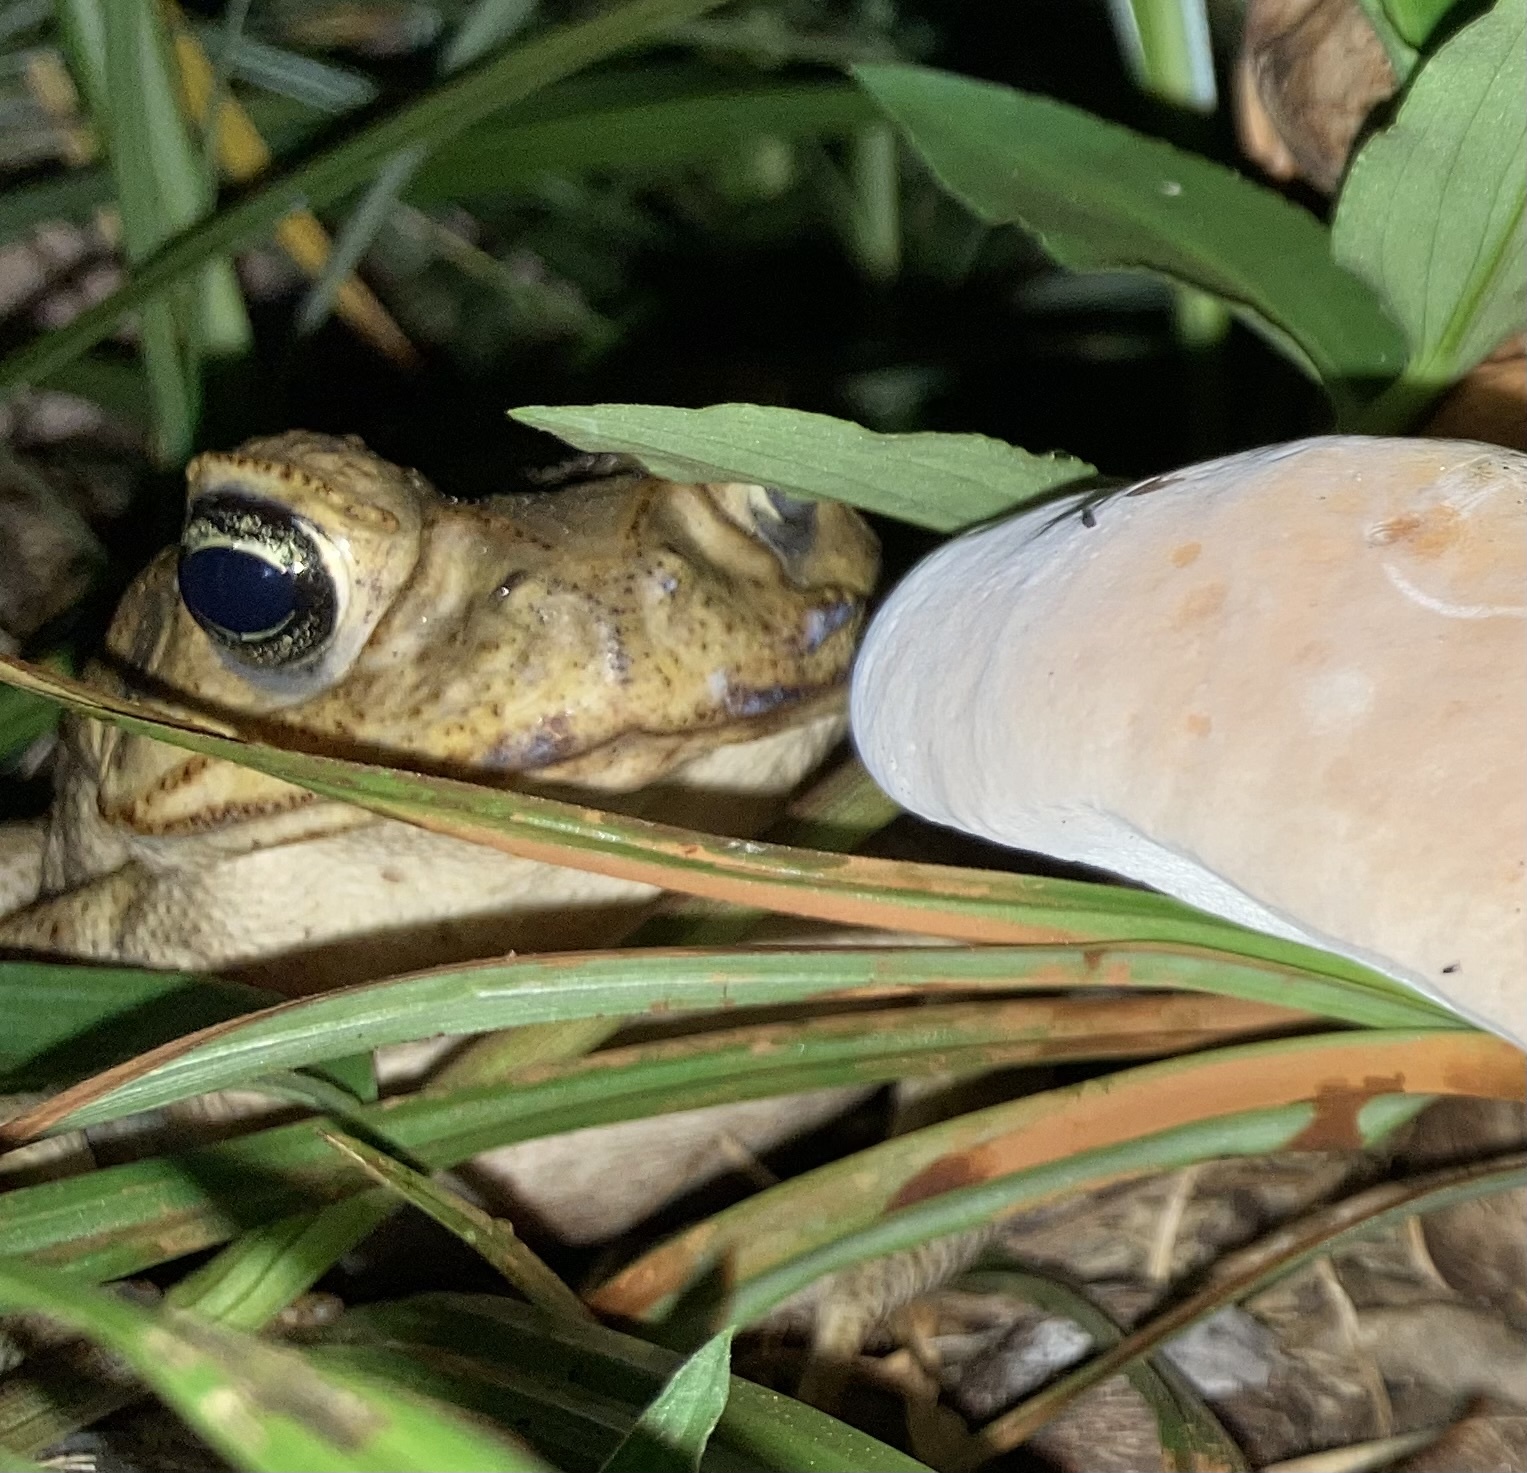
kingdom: Animalia
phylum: Chordata
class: Amphibia
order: Anura
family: Bufonidae
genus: Rhinella
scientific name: Rhinella marina
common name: Cane toad
